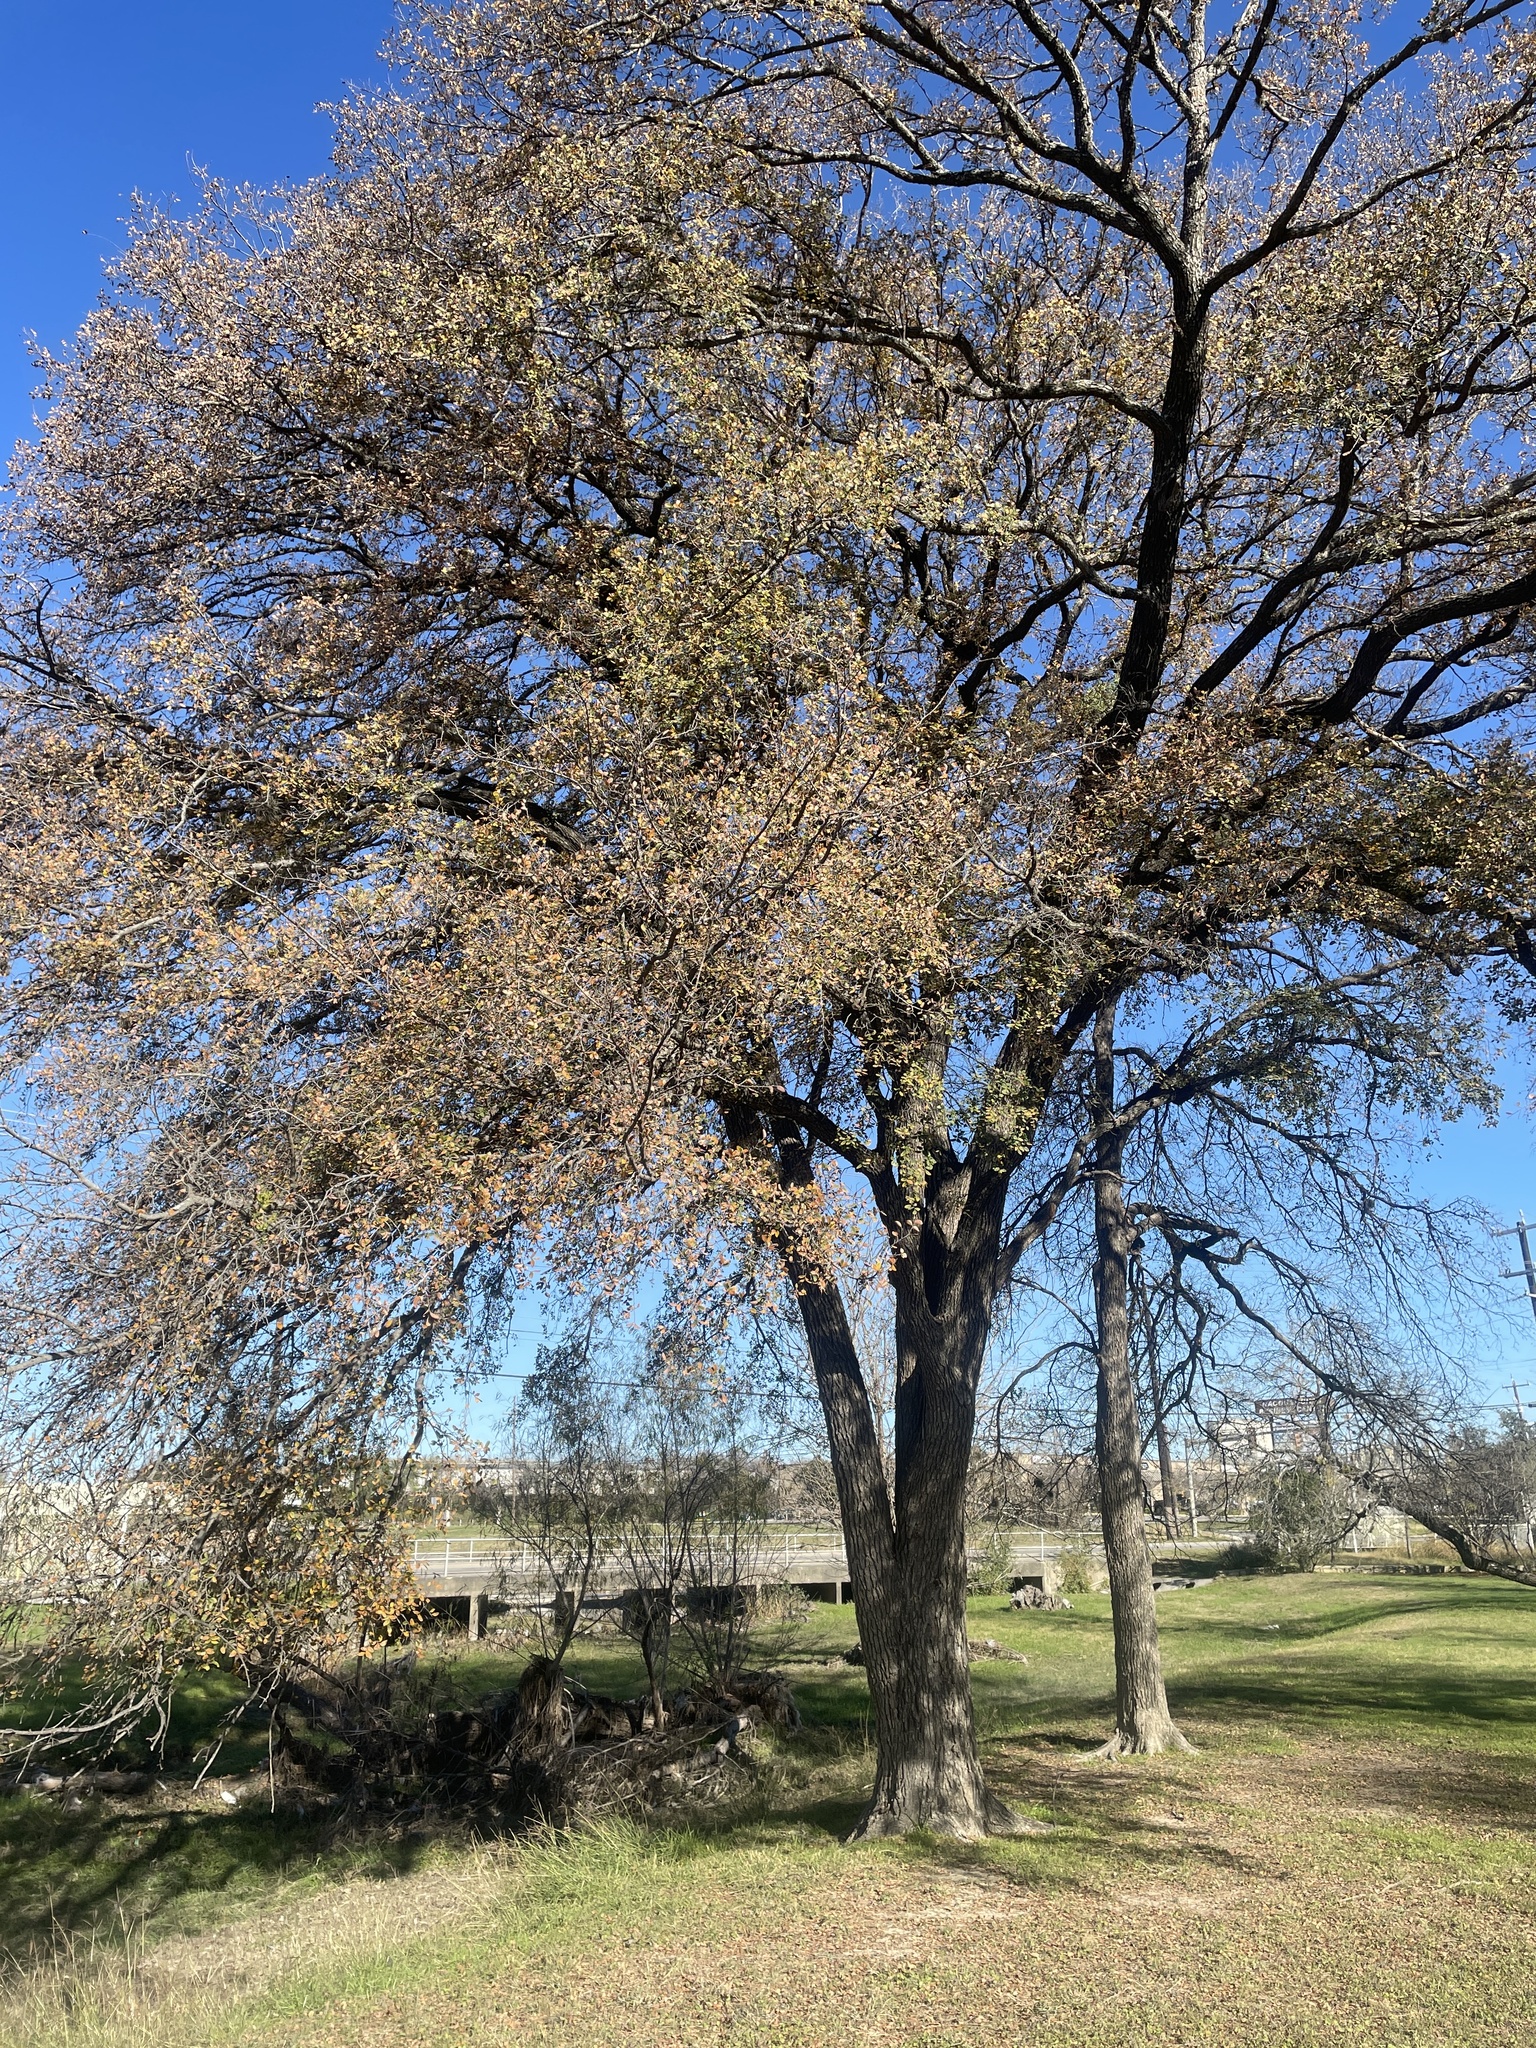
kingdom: Plantae
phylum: Tracheophyta
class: Magnoliopsida
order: Rosales
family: Ulmaceae
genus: Ulmus
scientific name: Ulmus crassifolia
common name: Basket elm
